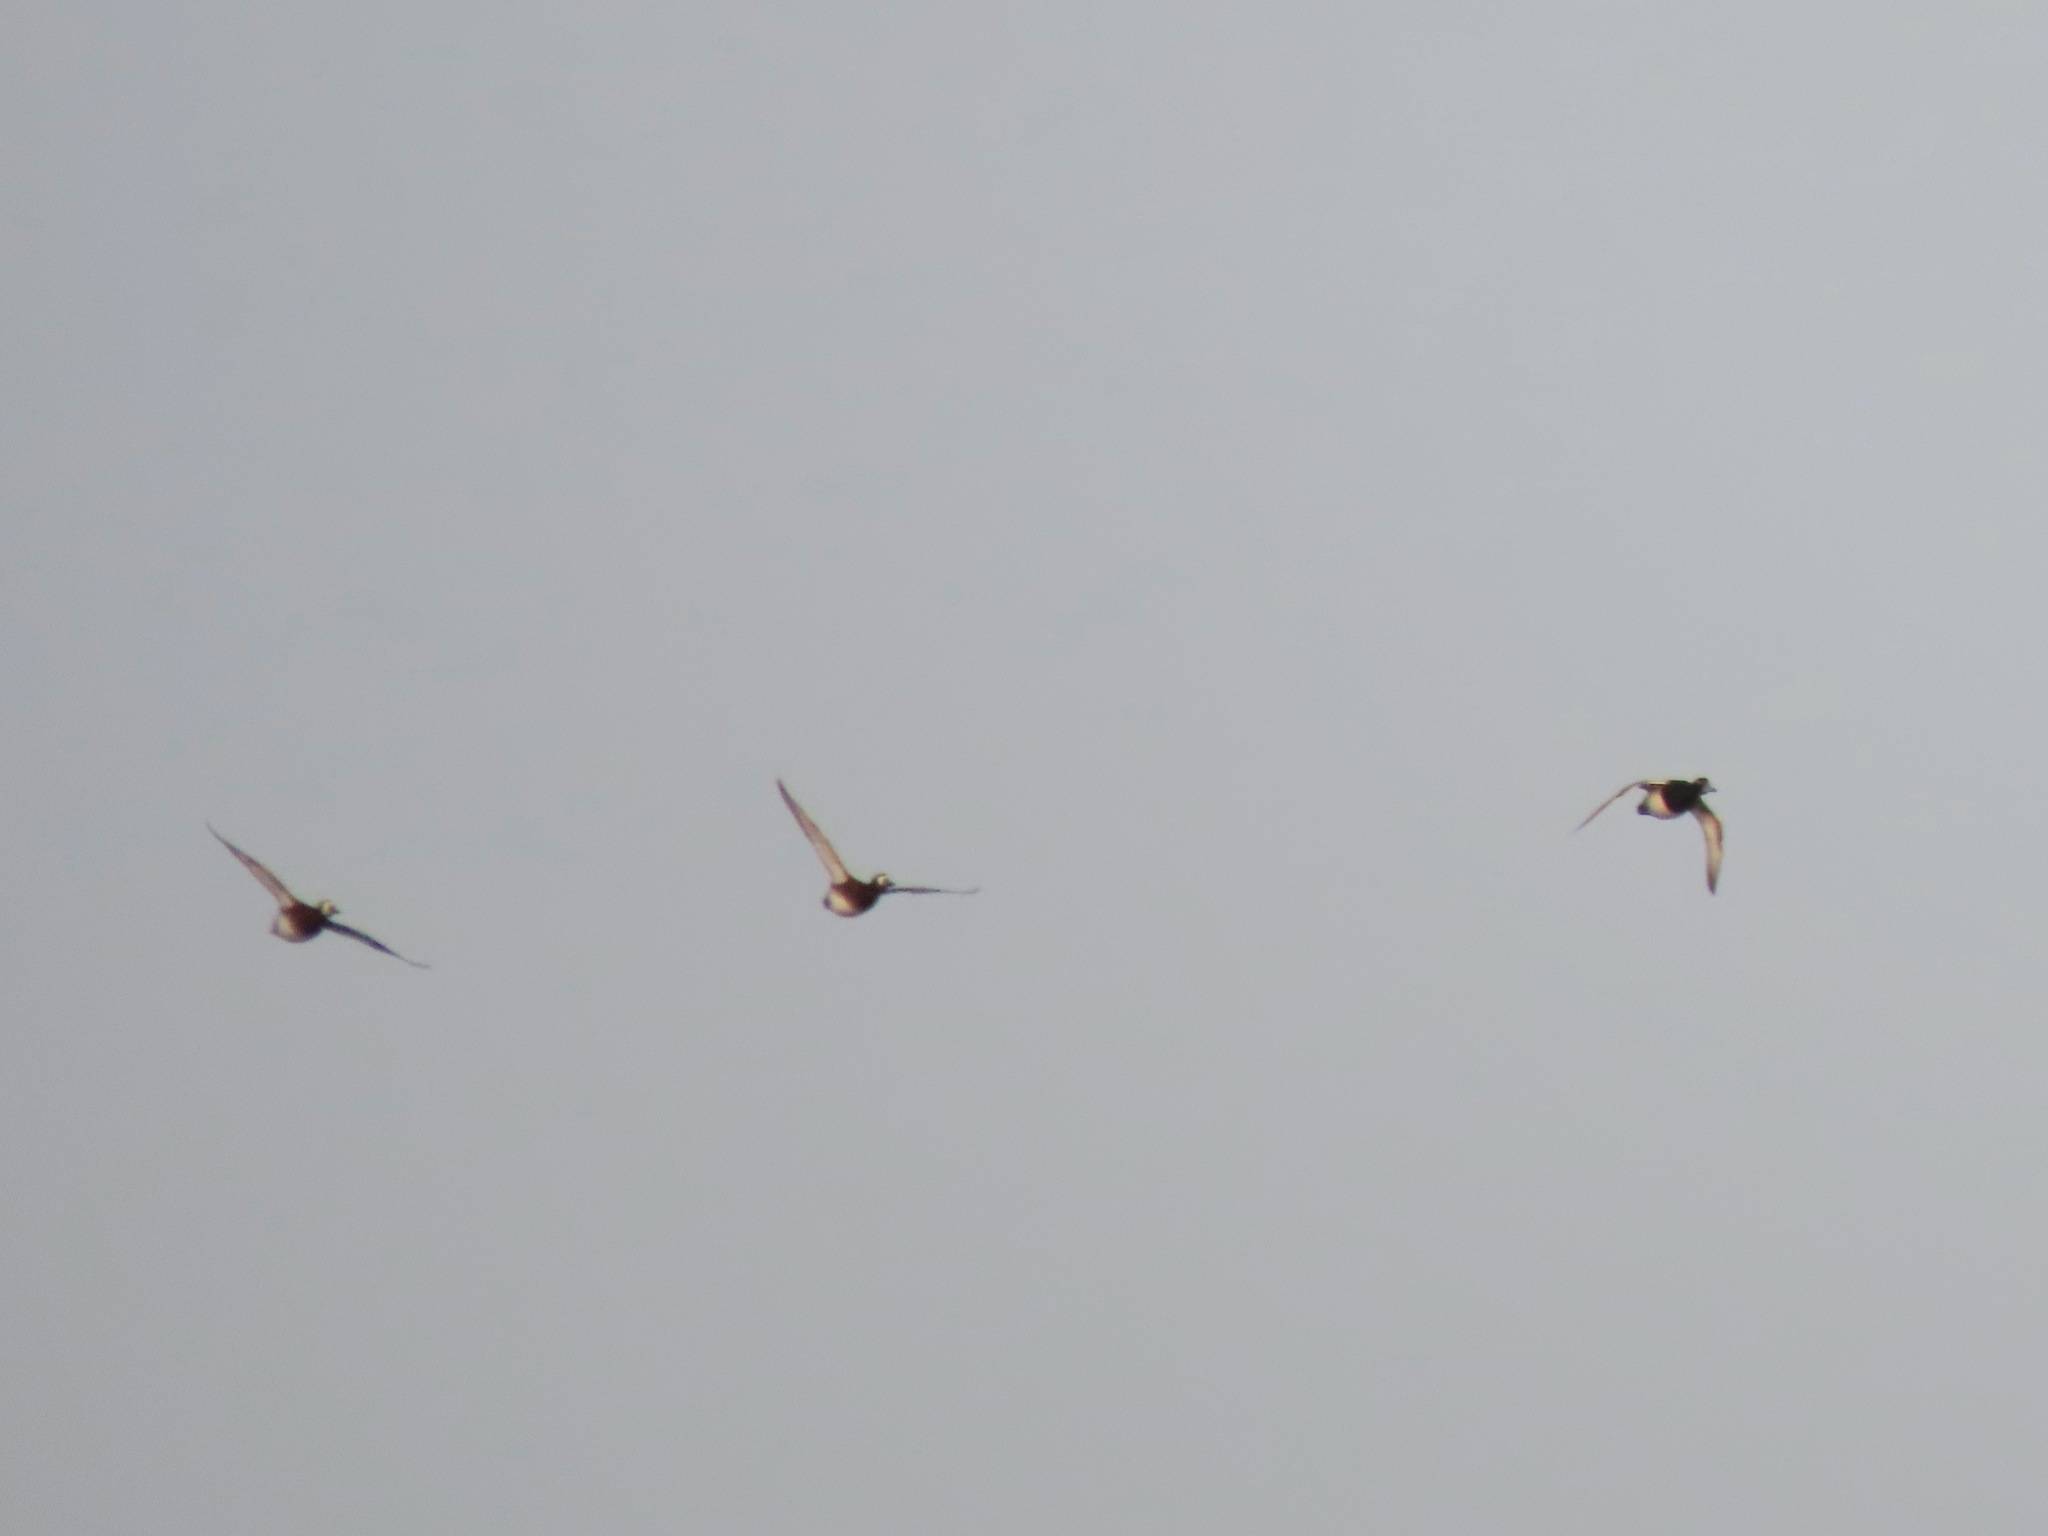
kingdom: Animalia
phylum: Chordata
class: Aves
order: Anseriformes
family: Anatidae
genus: Aythya
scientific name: Aythya marila
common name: Greater scaup
